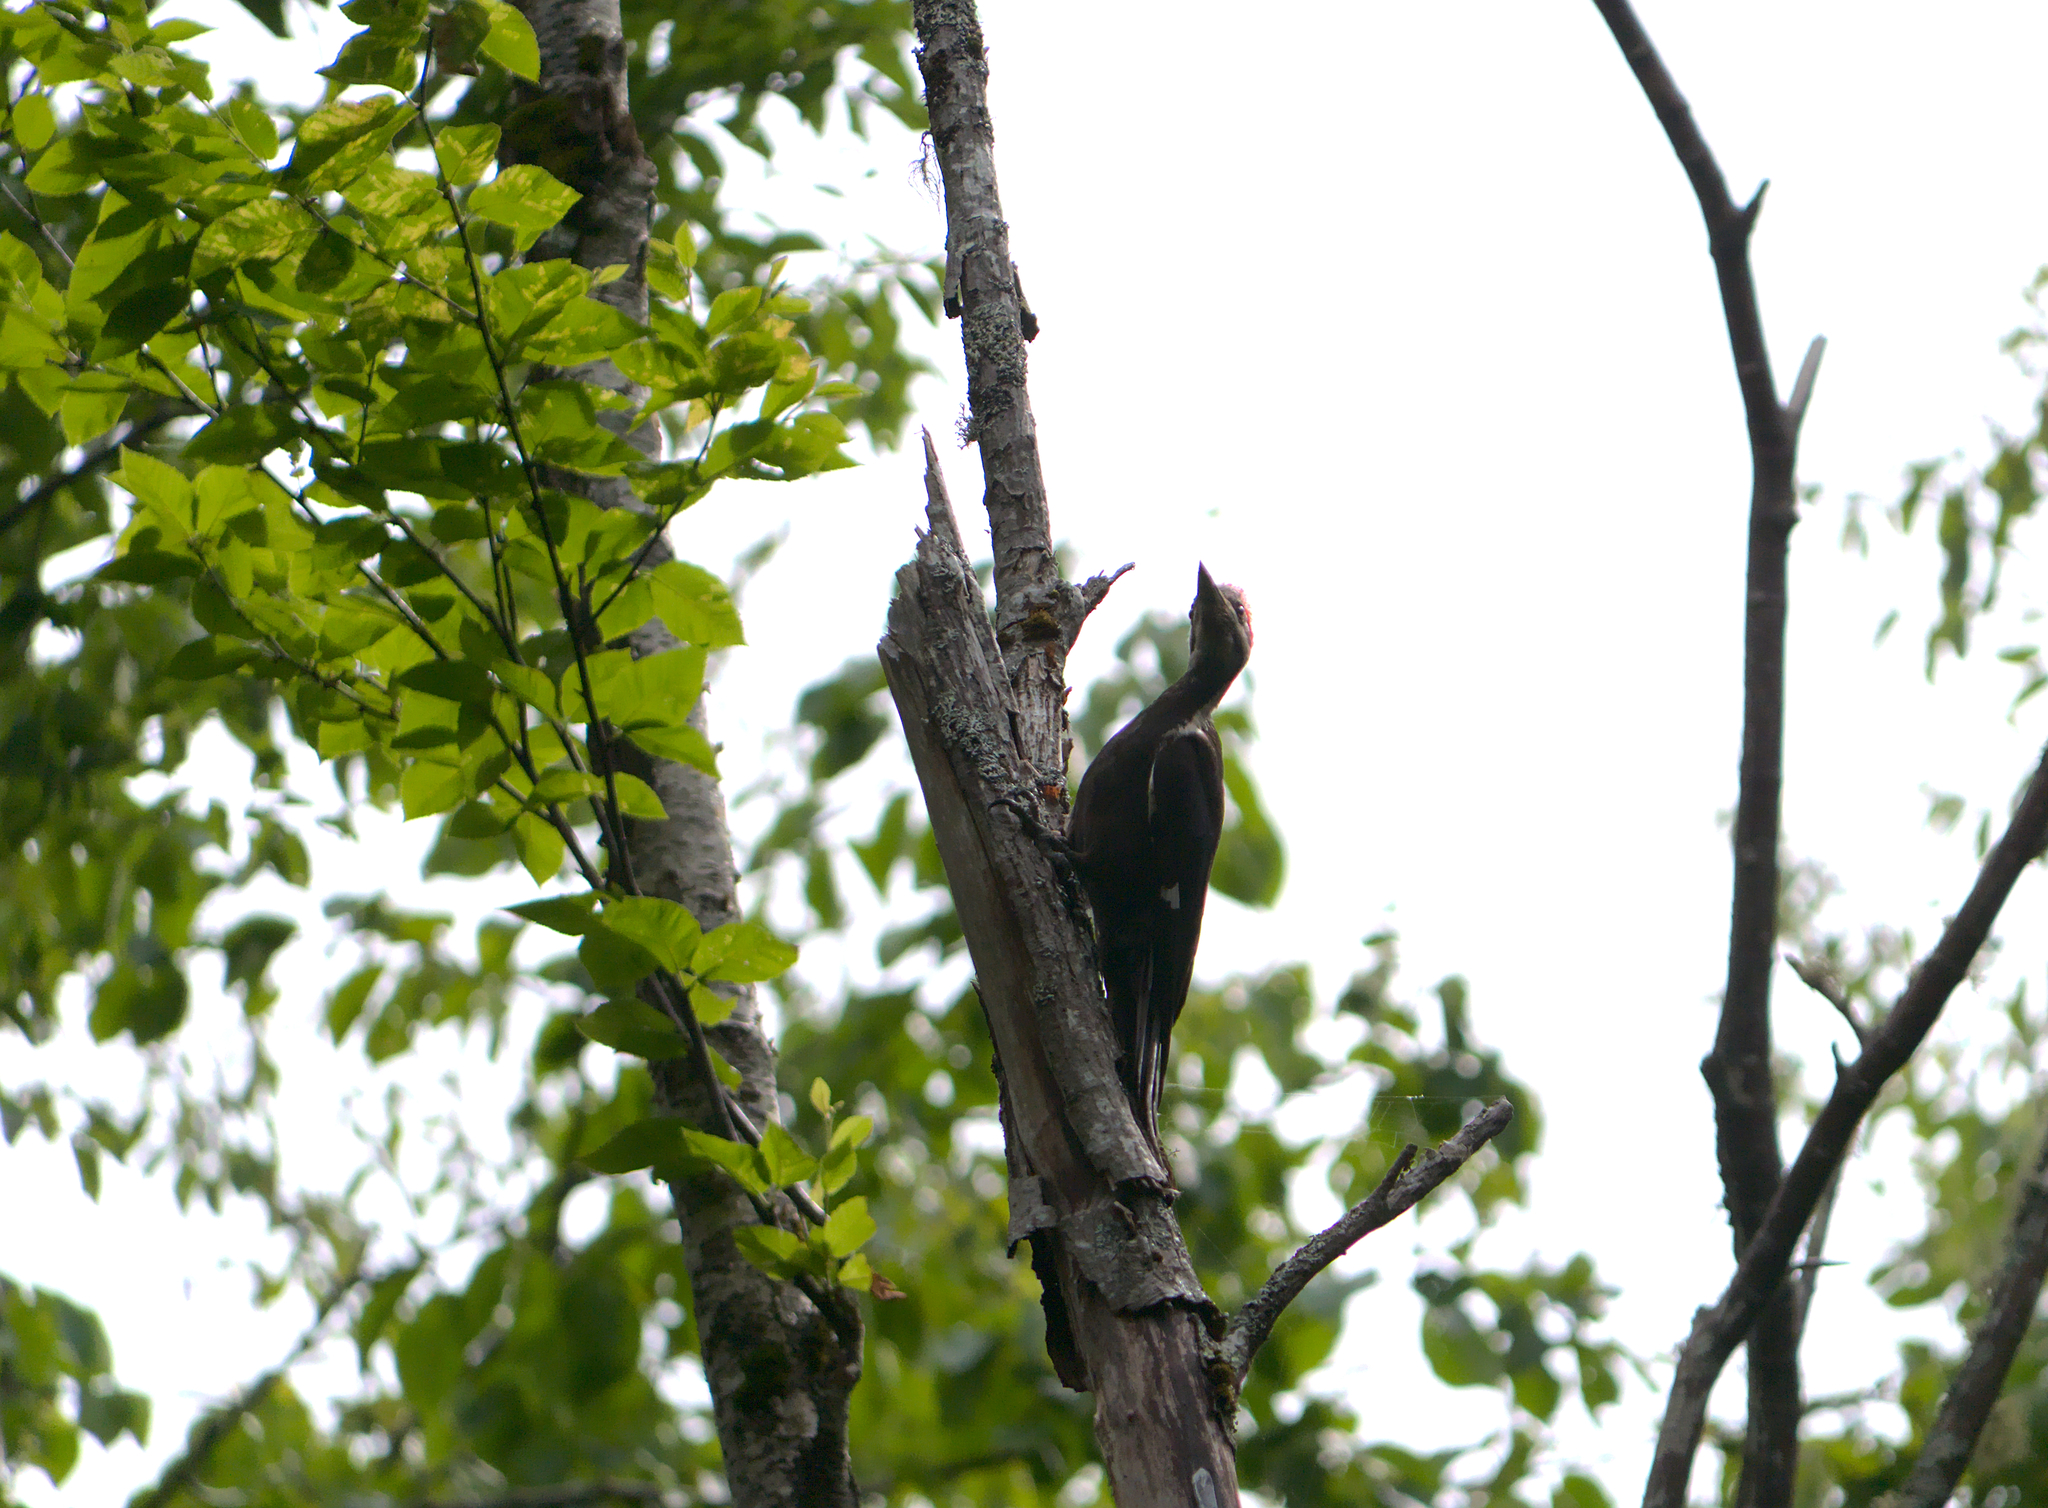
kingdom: Animalia
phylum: Chordata
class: Aves
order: Piciformes
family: Picidae
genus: Dryocopus
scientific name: Dryocopus pileatus
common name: Pileated woodpecker
